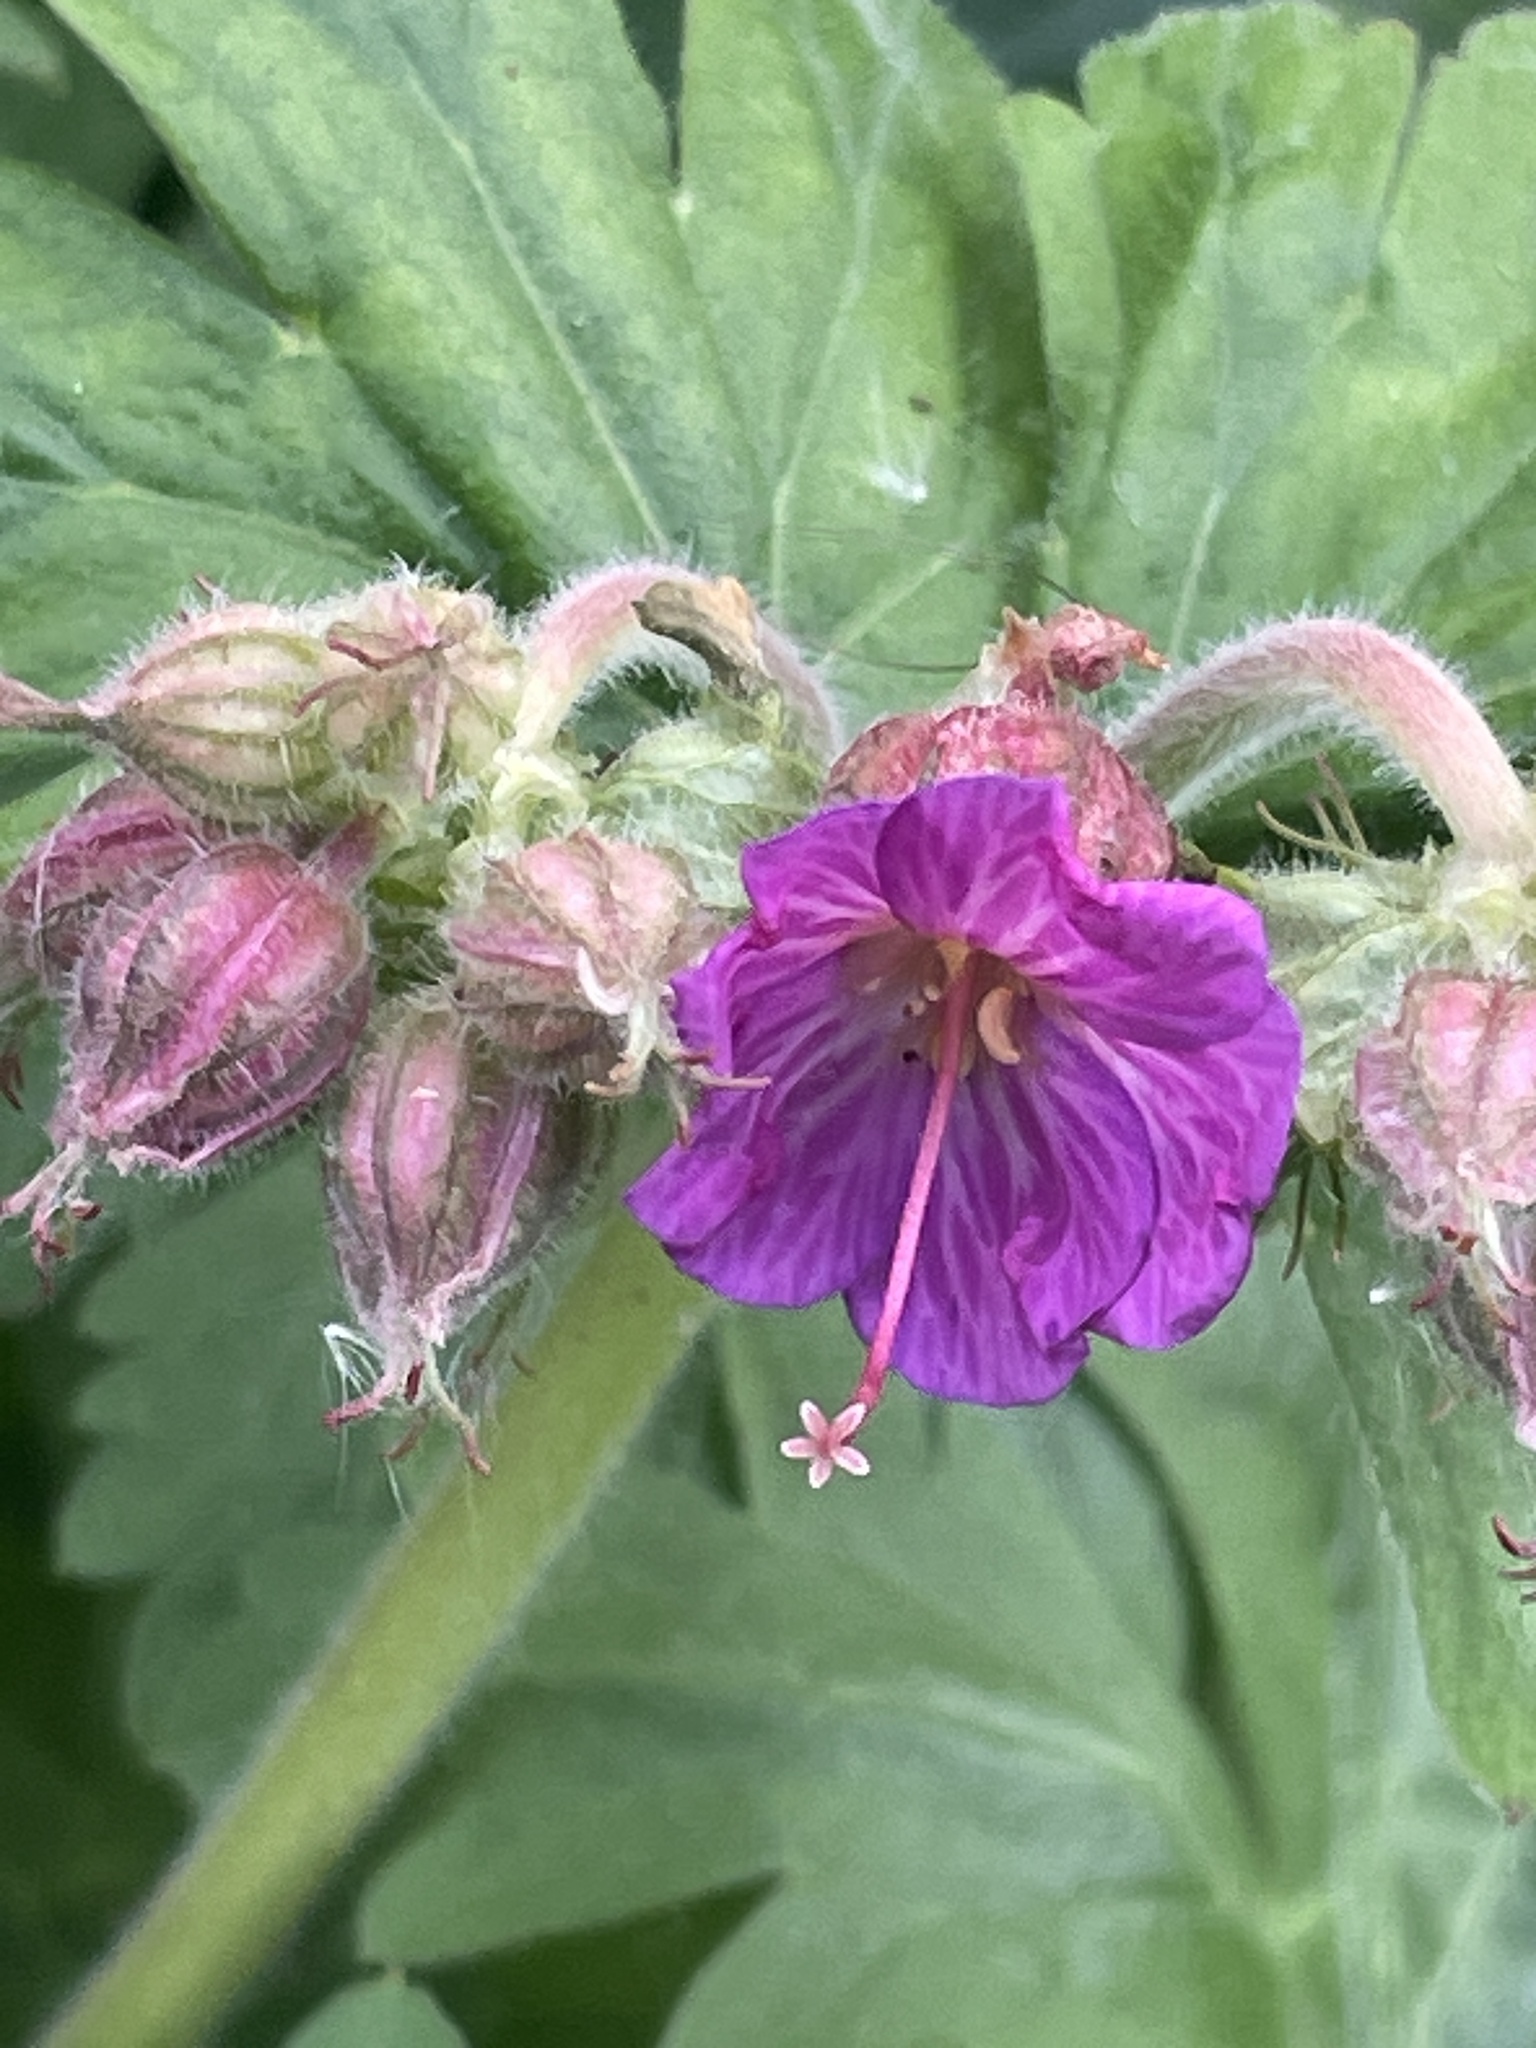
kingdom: Plantae
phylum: Tracheophyta
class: Magnoliopsida
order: Geraniales
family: Geraniaceae
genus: Geranium
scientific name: Geranium macrorrhizum
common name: Rock crane's-bill
